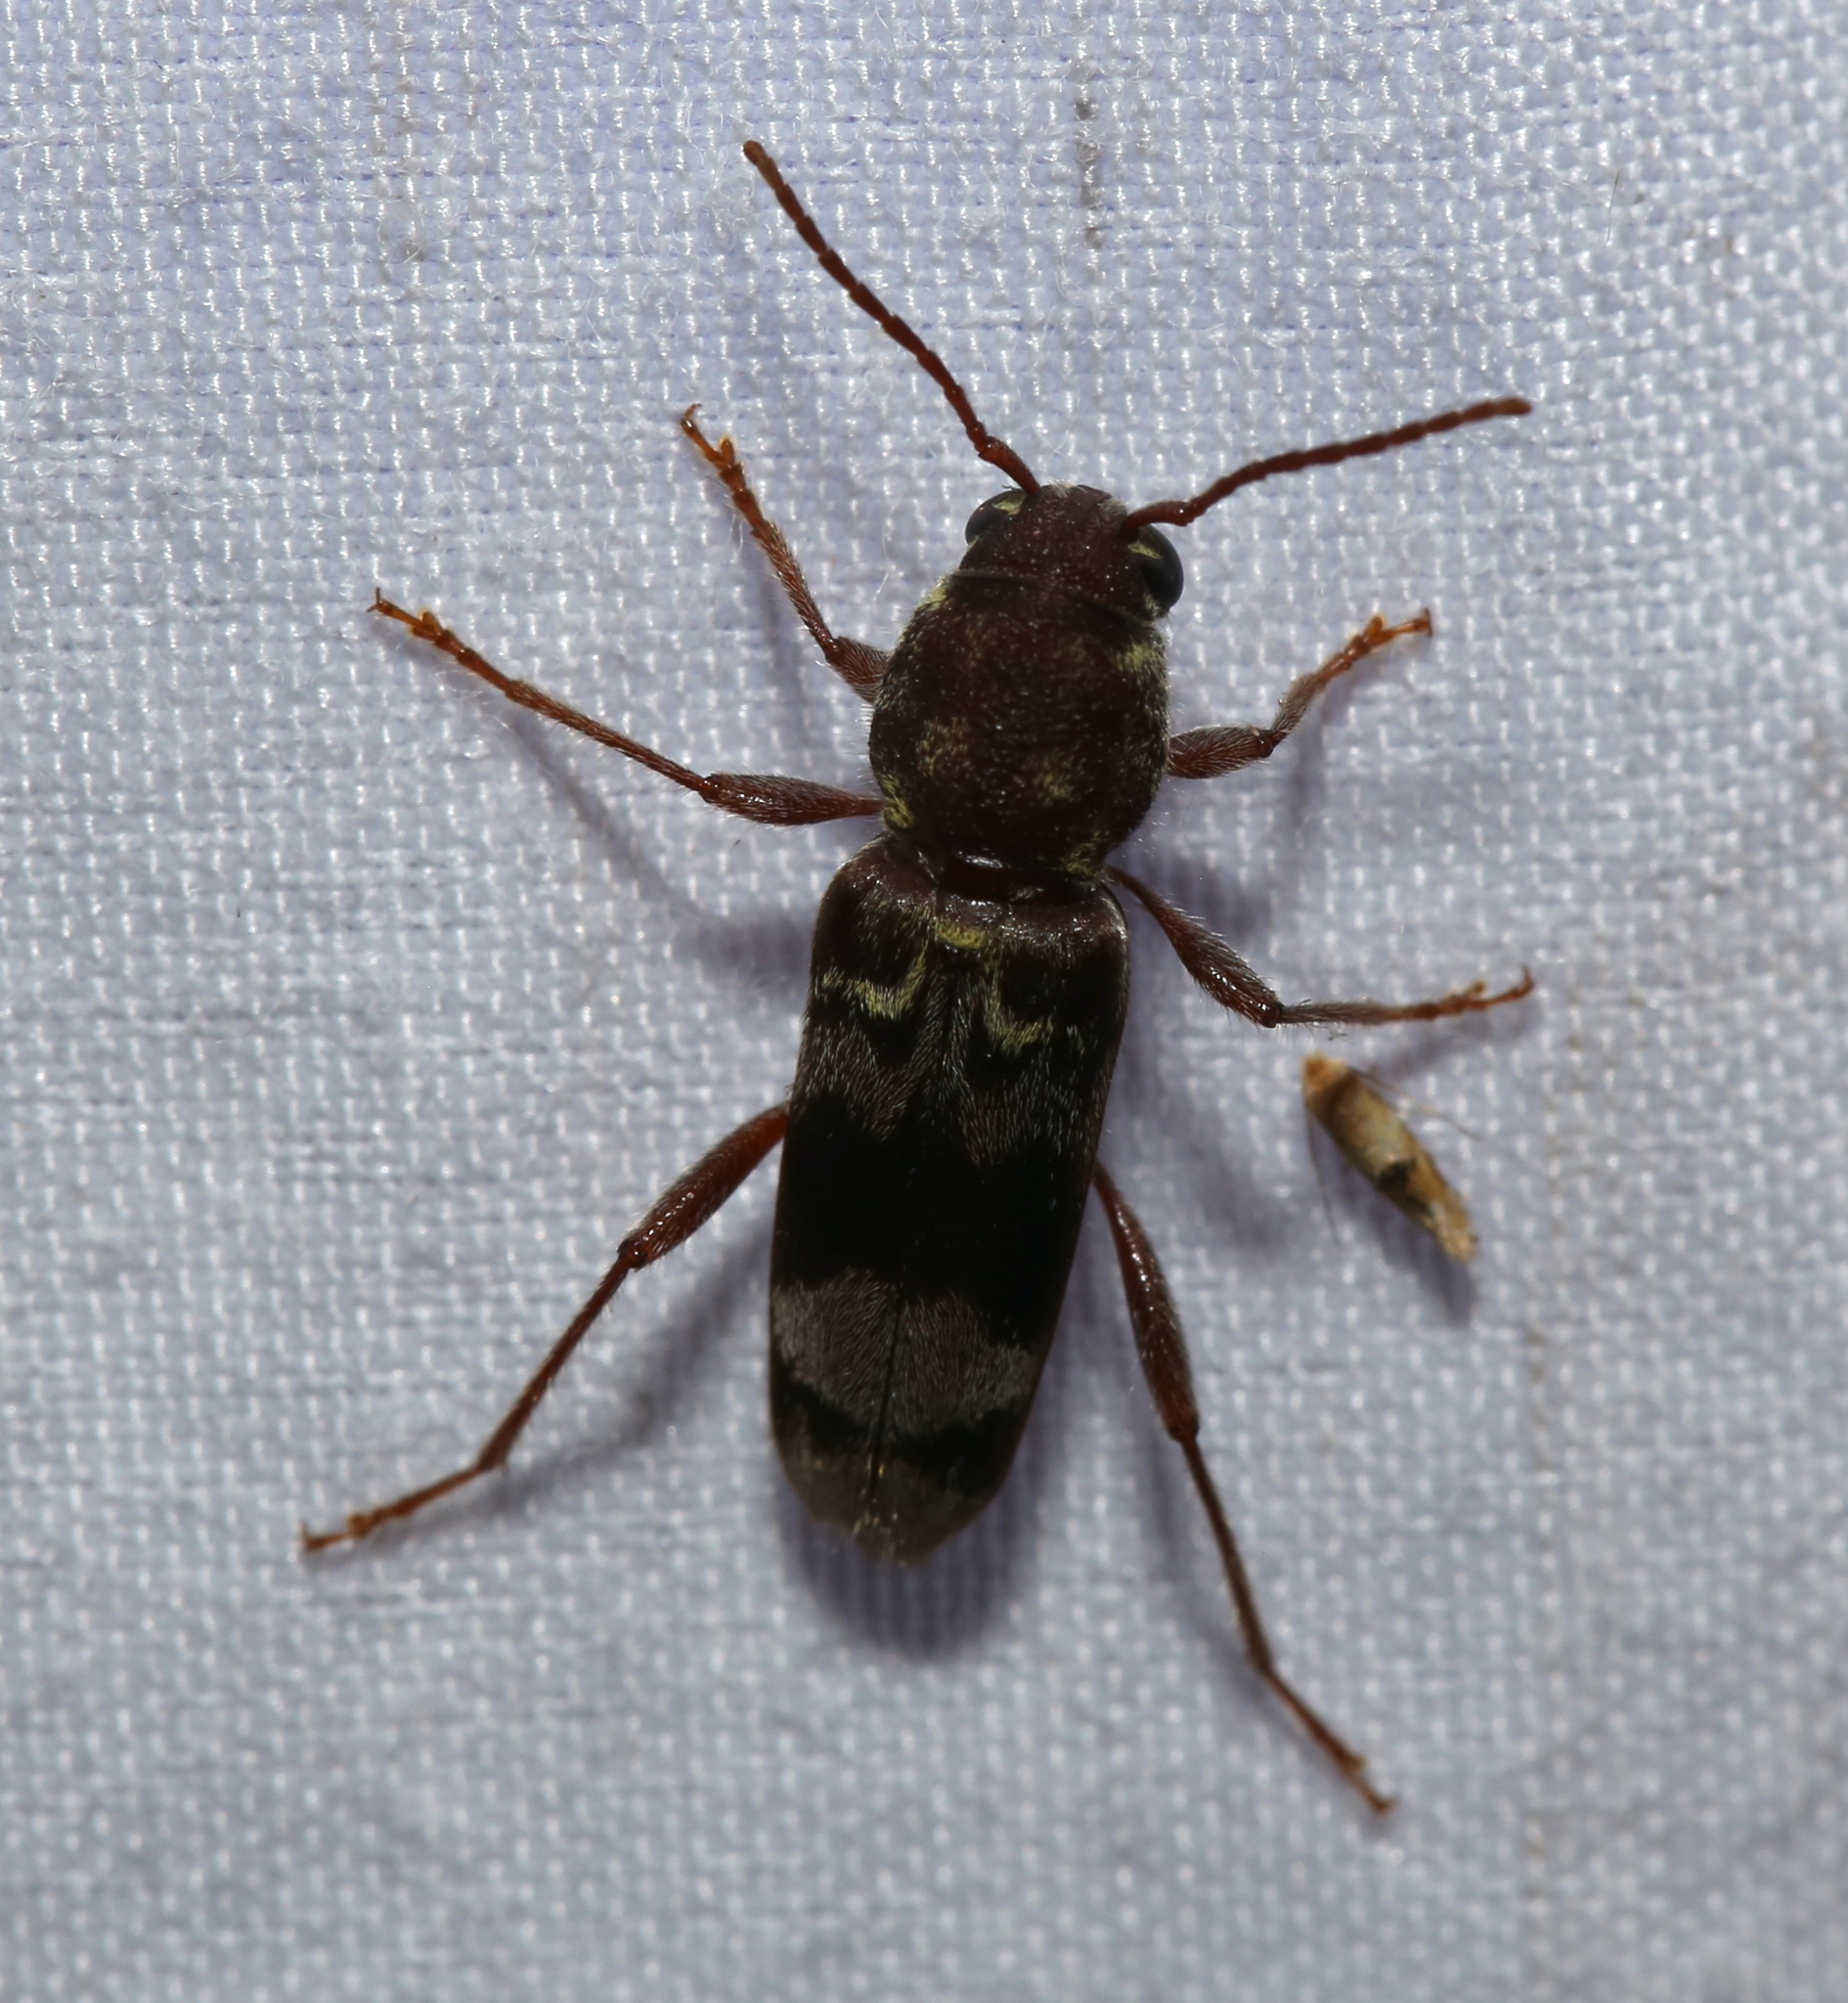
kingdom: Animalia
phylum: Arthropoda
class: Insecta
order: Coleoptera
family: Cerambycidae
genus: Xylotrechus
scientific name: Xylotrechus colonus
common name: Long-horned beetle
